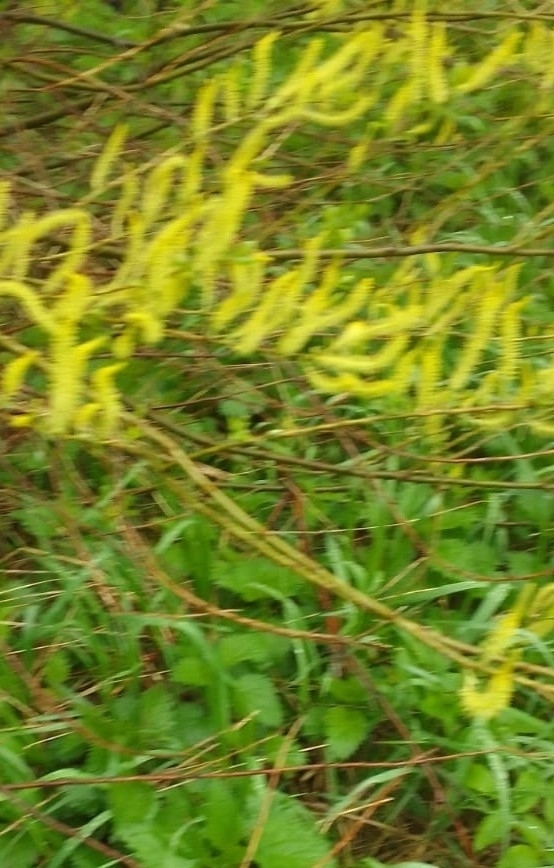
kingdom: Plantae
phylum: Tracheophyta
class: Magnoliopsida
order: Malpighiales
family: Salicaceae
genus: Salix
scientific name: Salix triandra
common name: Almond willow
